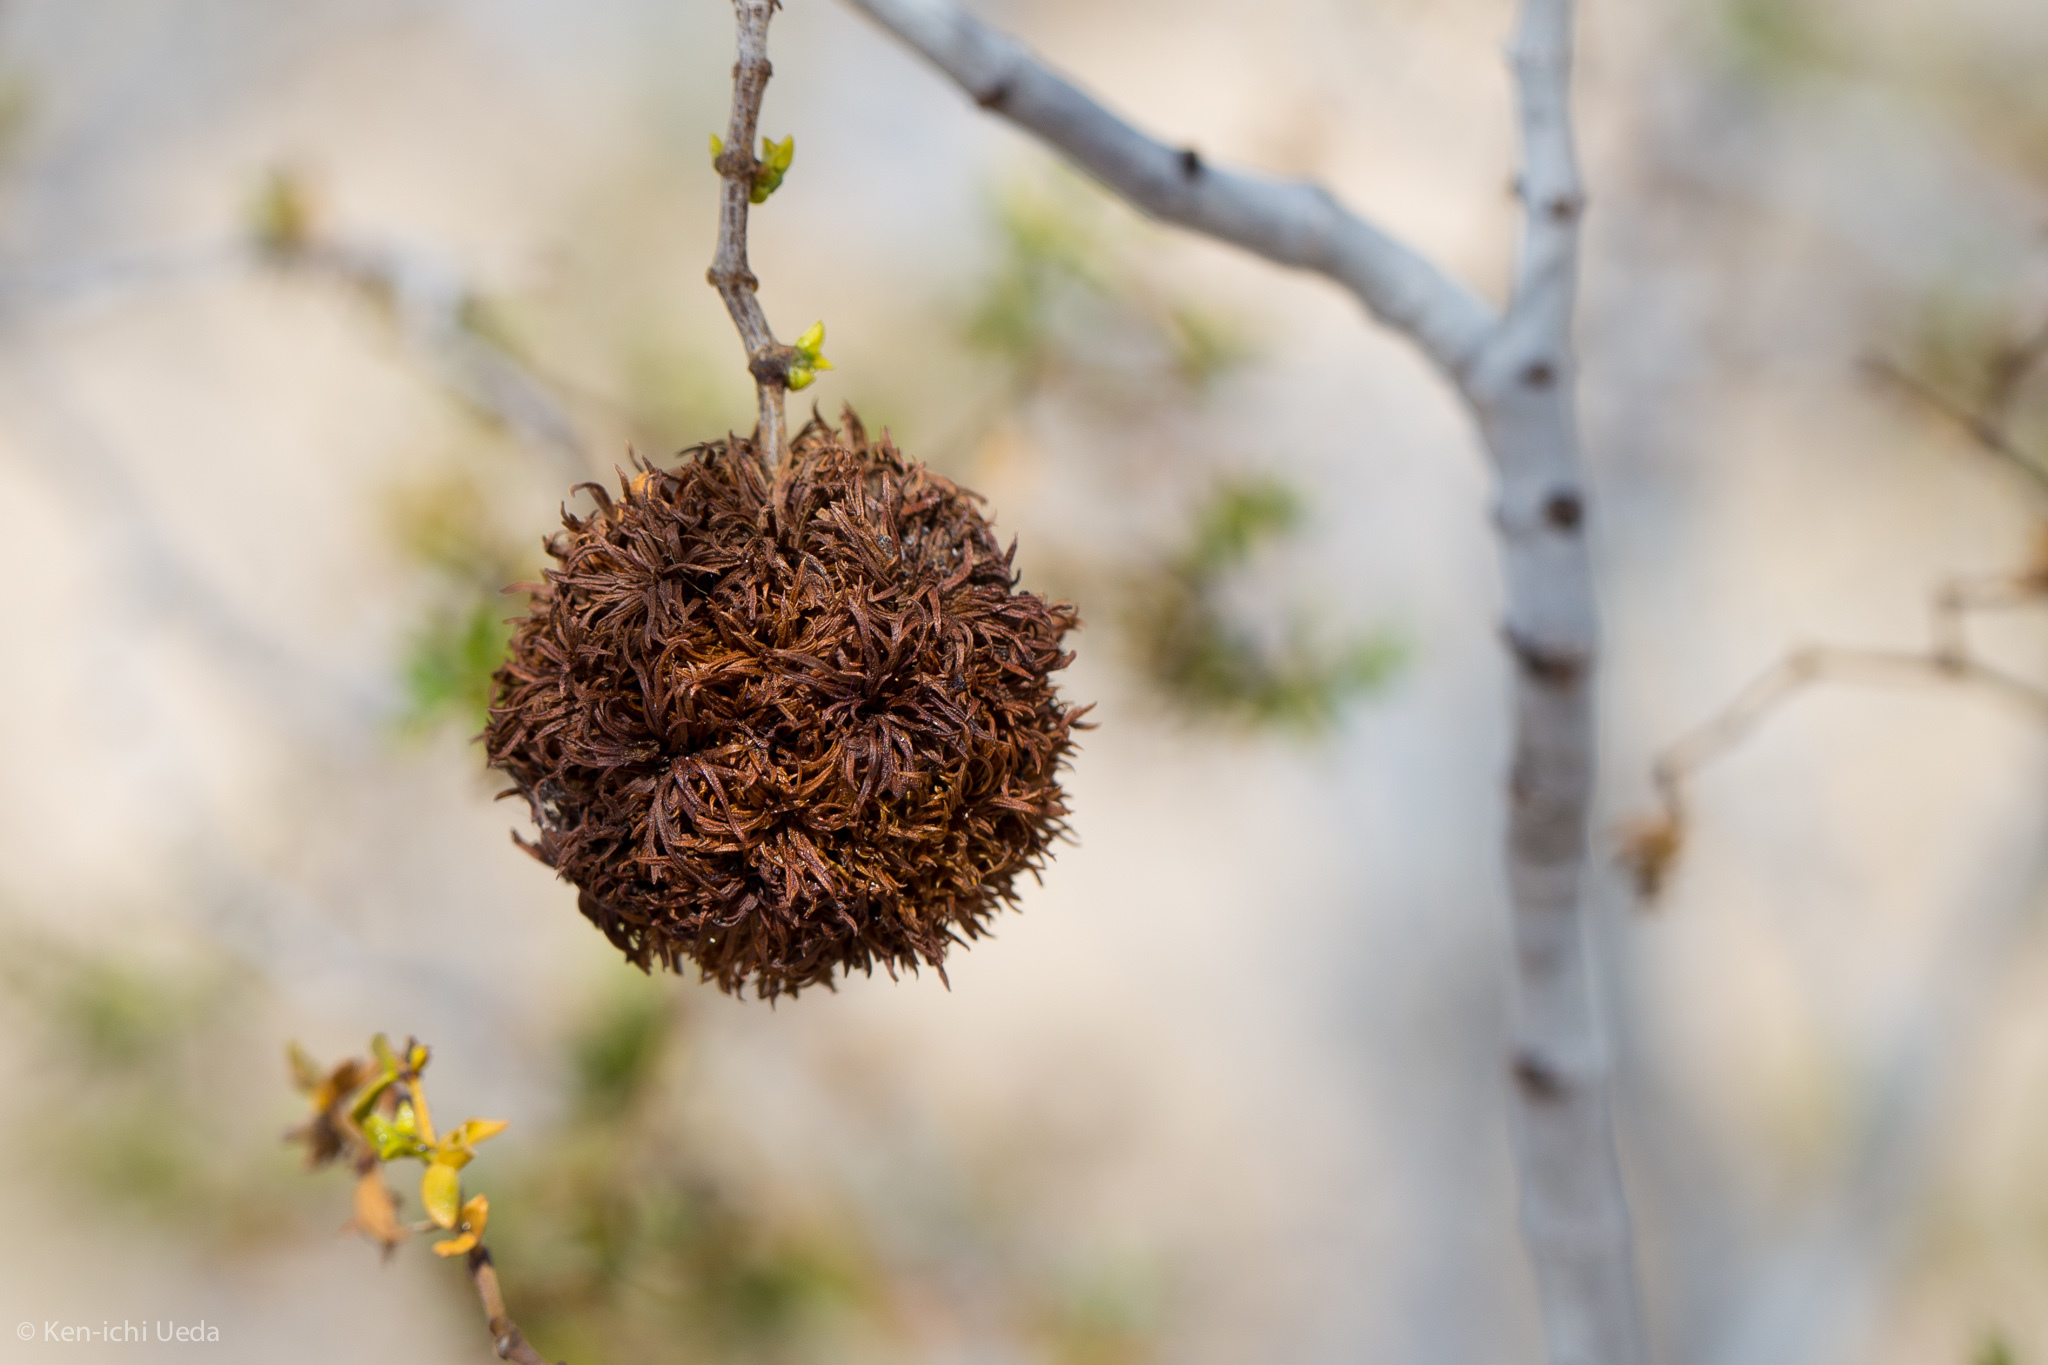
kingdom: Animalia
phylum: Arthropoda
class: Insecta
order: Diptera
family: Cecidomyiidae
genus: Asphondylia
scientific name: Asphondylia auripila
